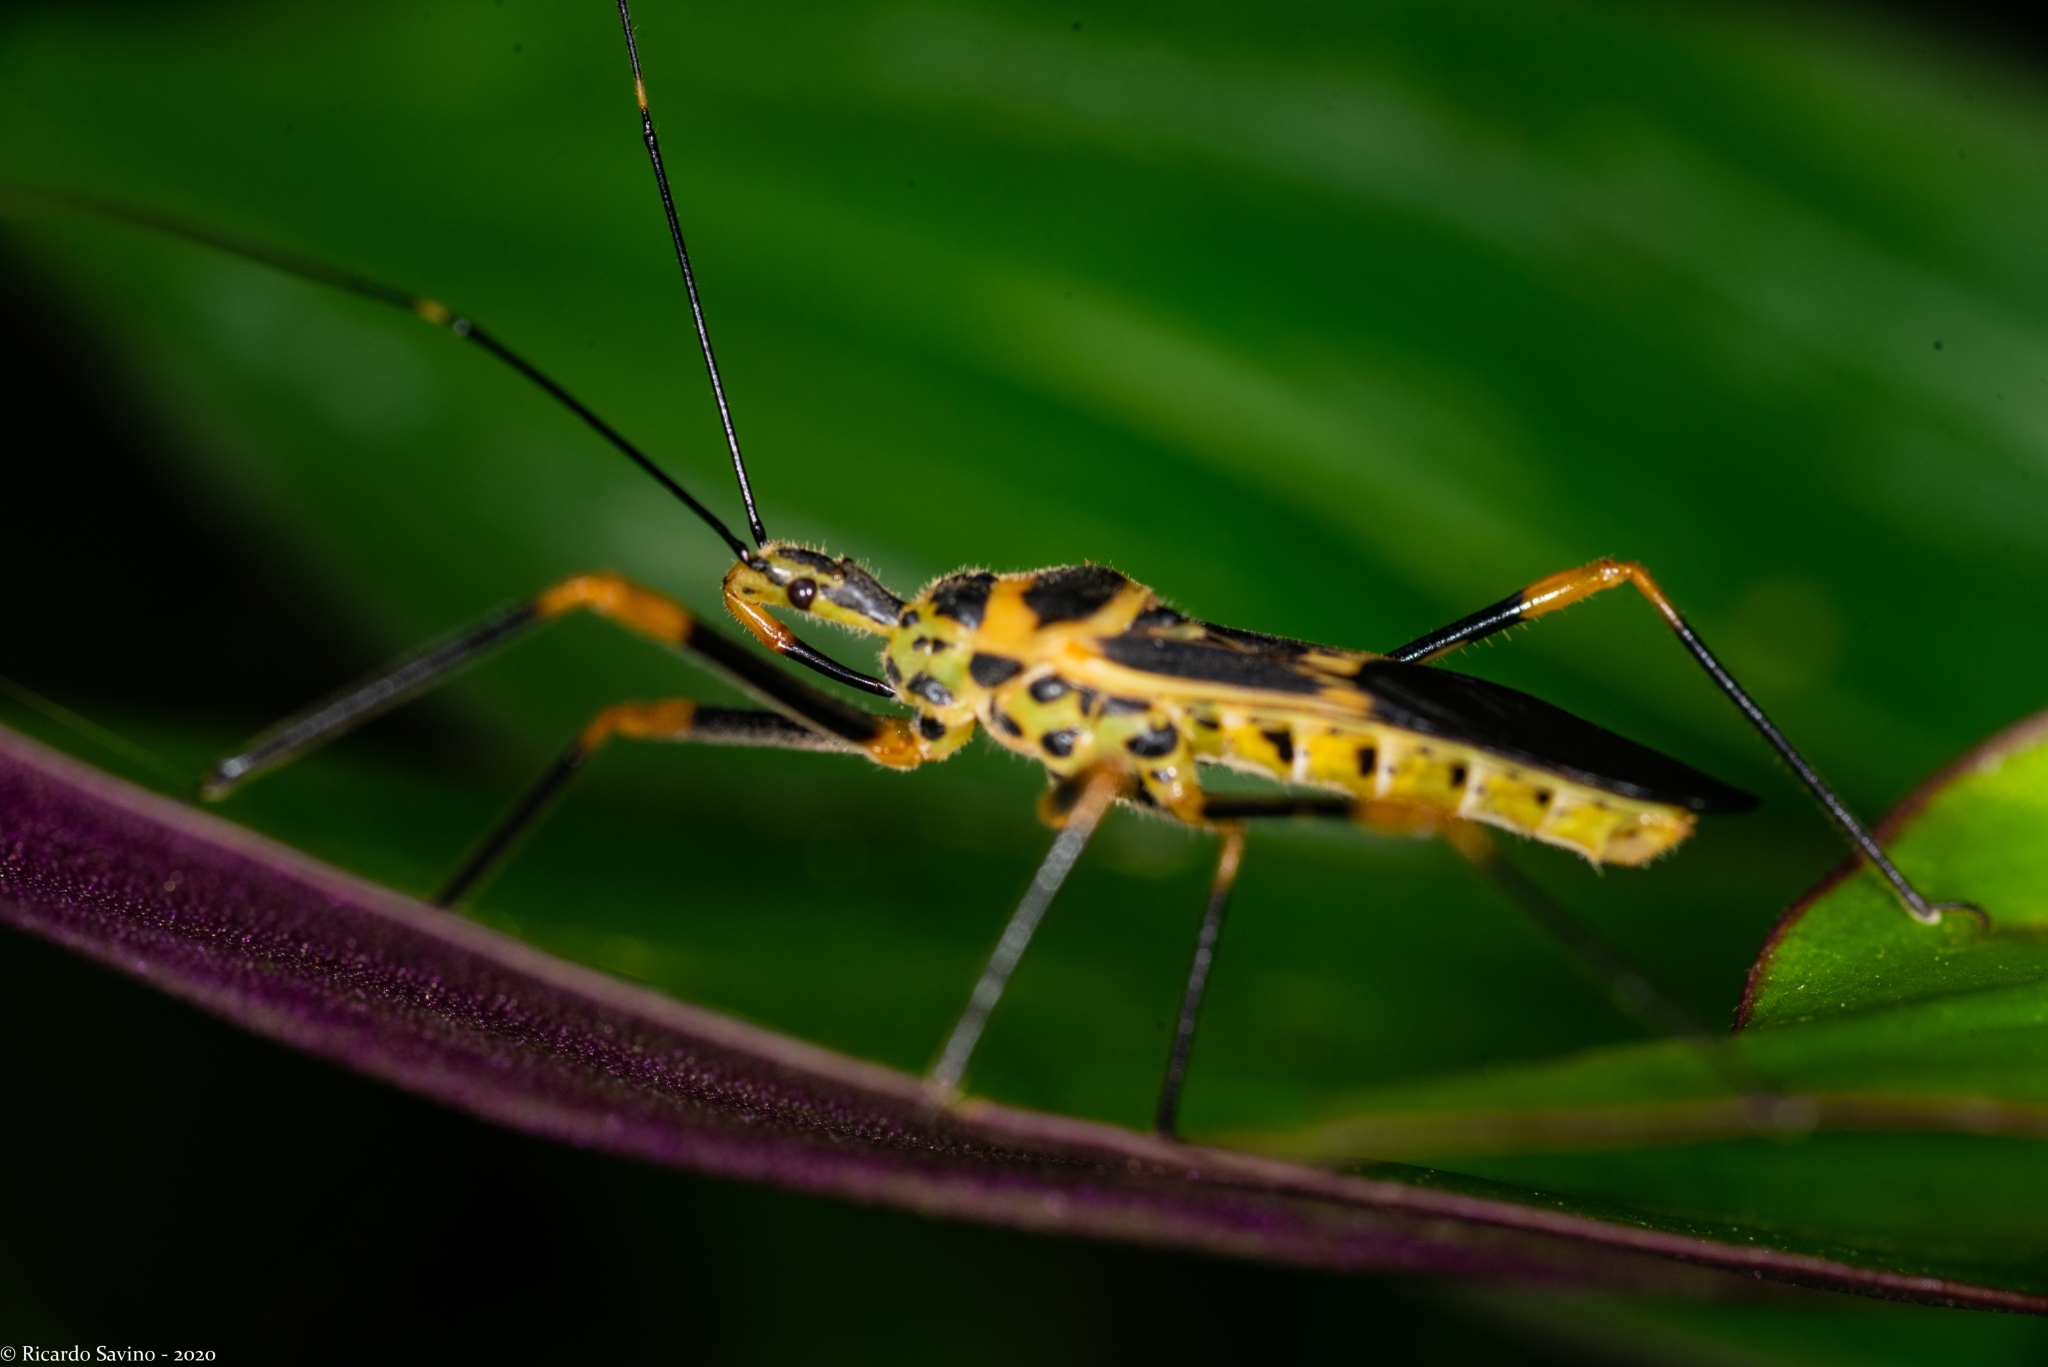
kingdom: Animalia
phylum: Arthropoda
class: Insecta
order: Hemiptera
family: Reduviidae
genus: Zelus
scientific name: Zelus armillatus
